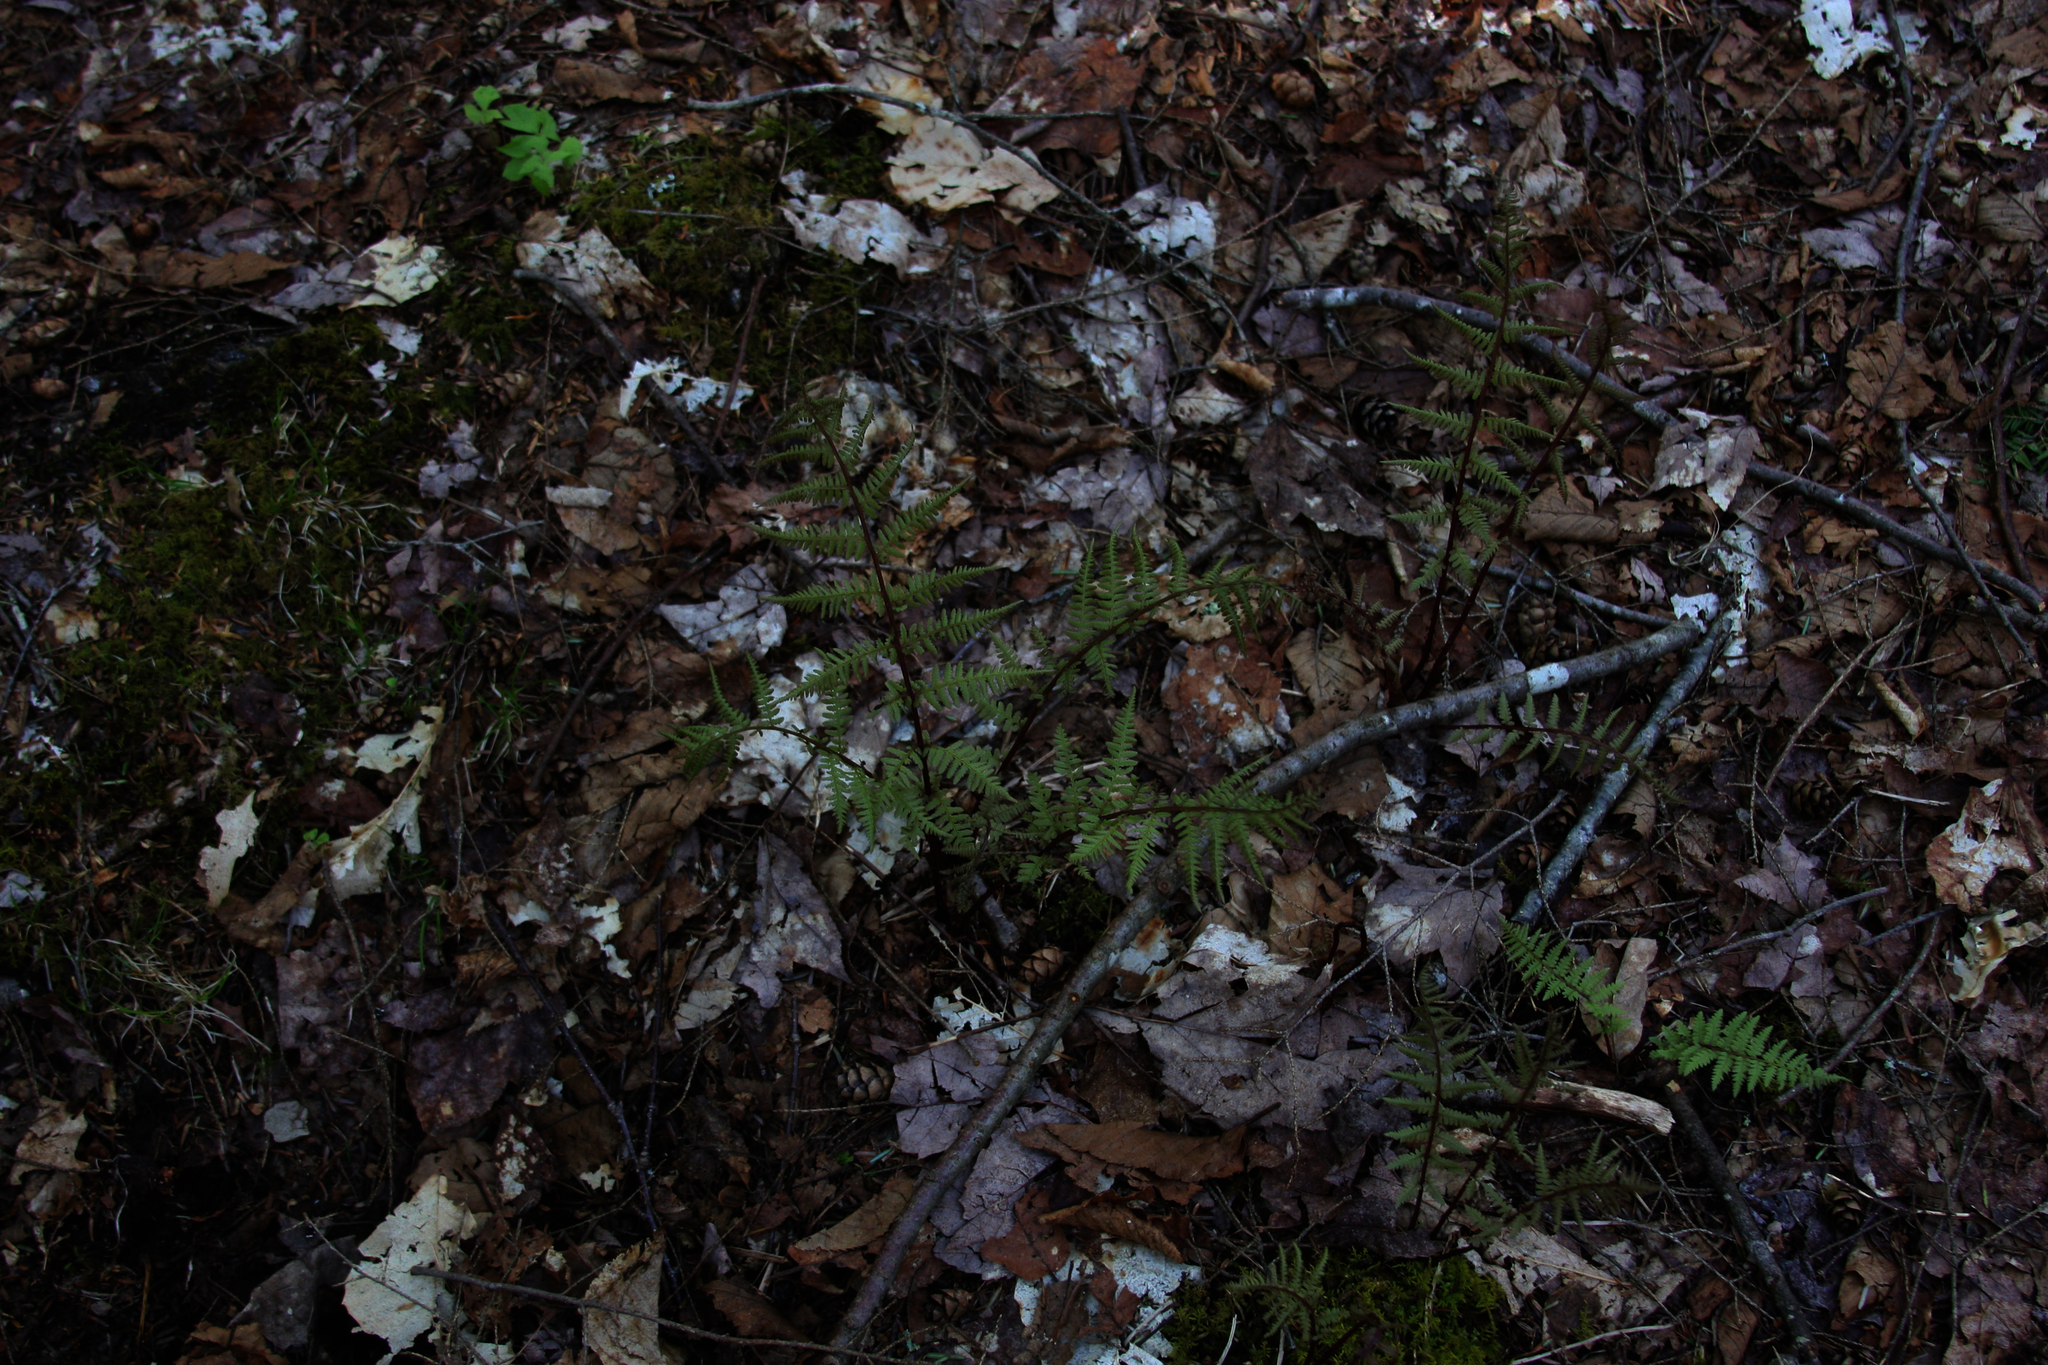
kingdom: Plantae
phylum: Tracheophyta
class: Polypodiopsida
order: Polypodiales
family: Athyriaceae
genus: Athyrium
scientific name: Athyrium angustum
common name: Northern lady fern
